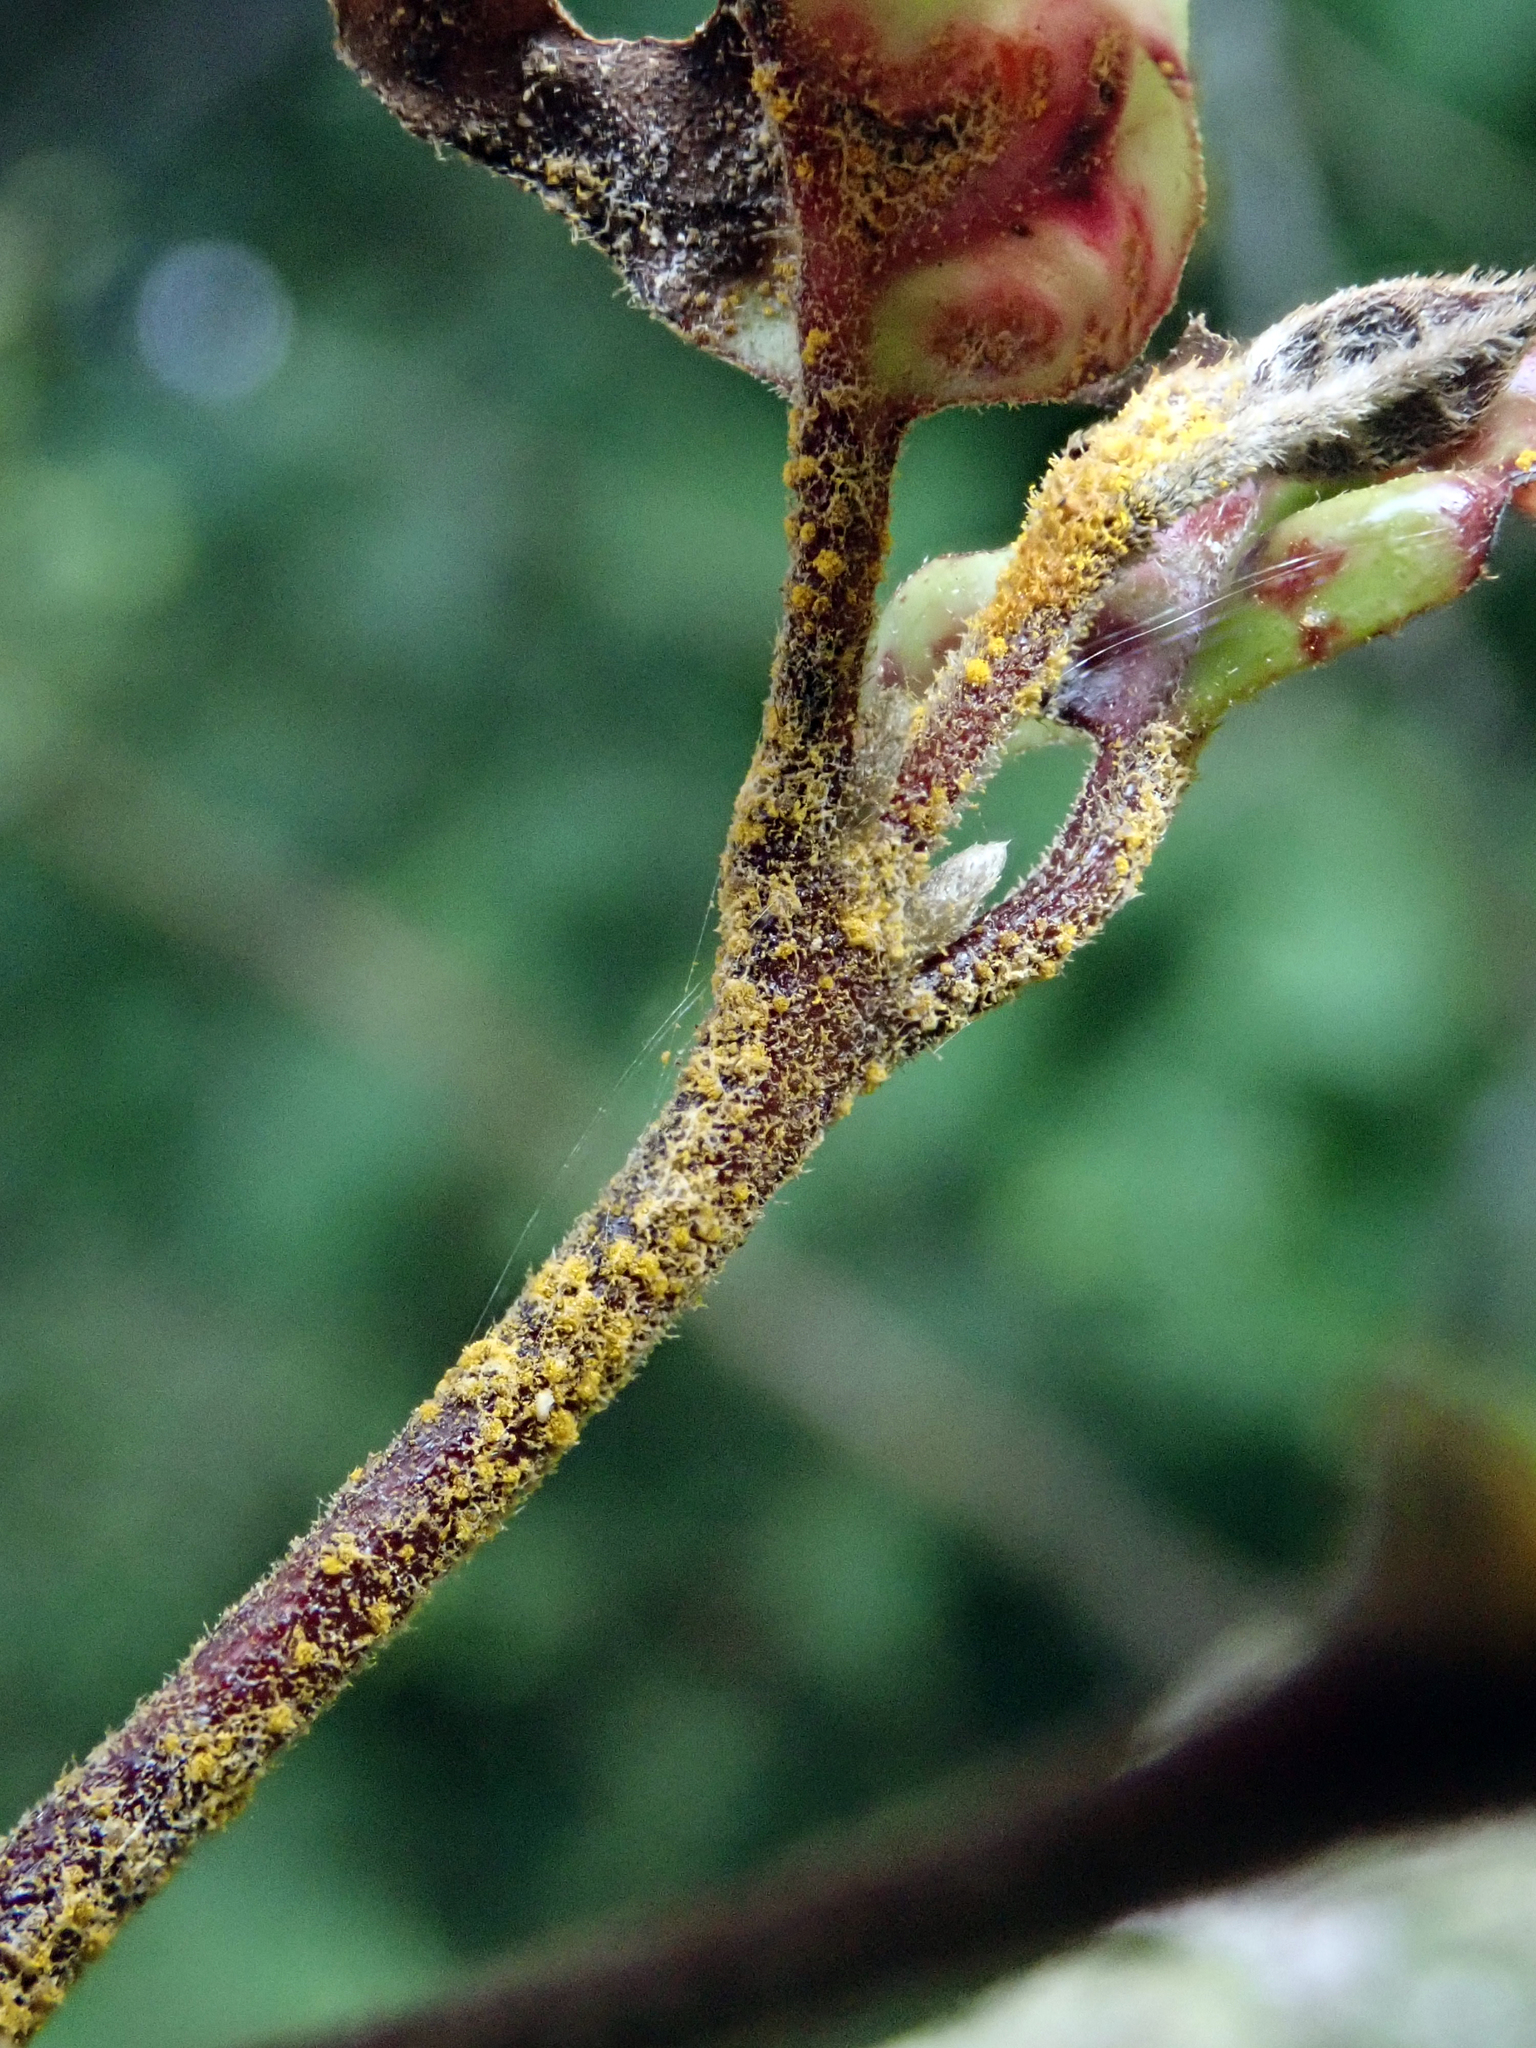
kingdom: Fungi
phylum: Basidiomycota
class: Pucciniomycetes
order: Pucciniales
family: Sphaerophragmiaceae
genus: Austropuccinia
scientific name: Austropuccinia psidii
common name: Myrtle rust
